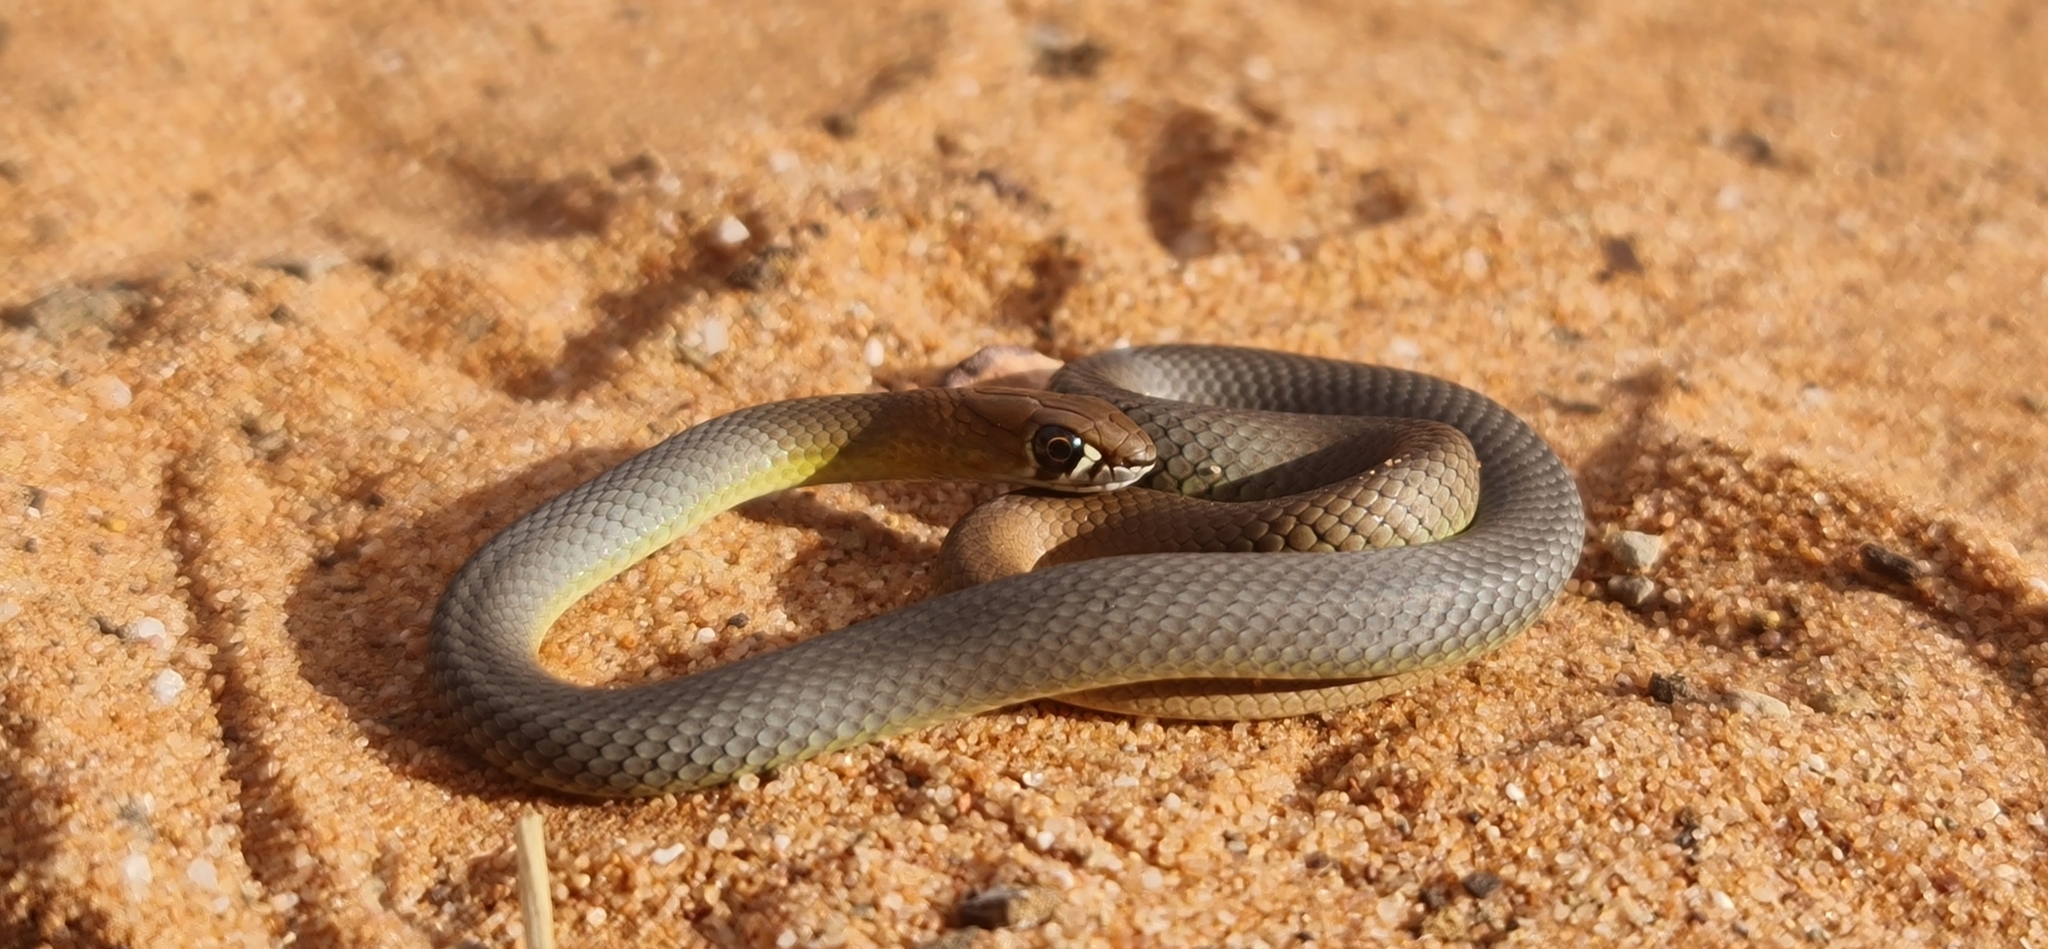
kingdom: Animalia
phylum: Chordata
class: Squamata
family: Elapidae
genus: Demansia
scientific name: Demansia
